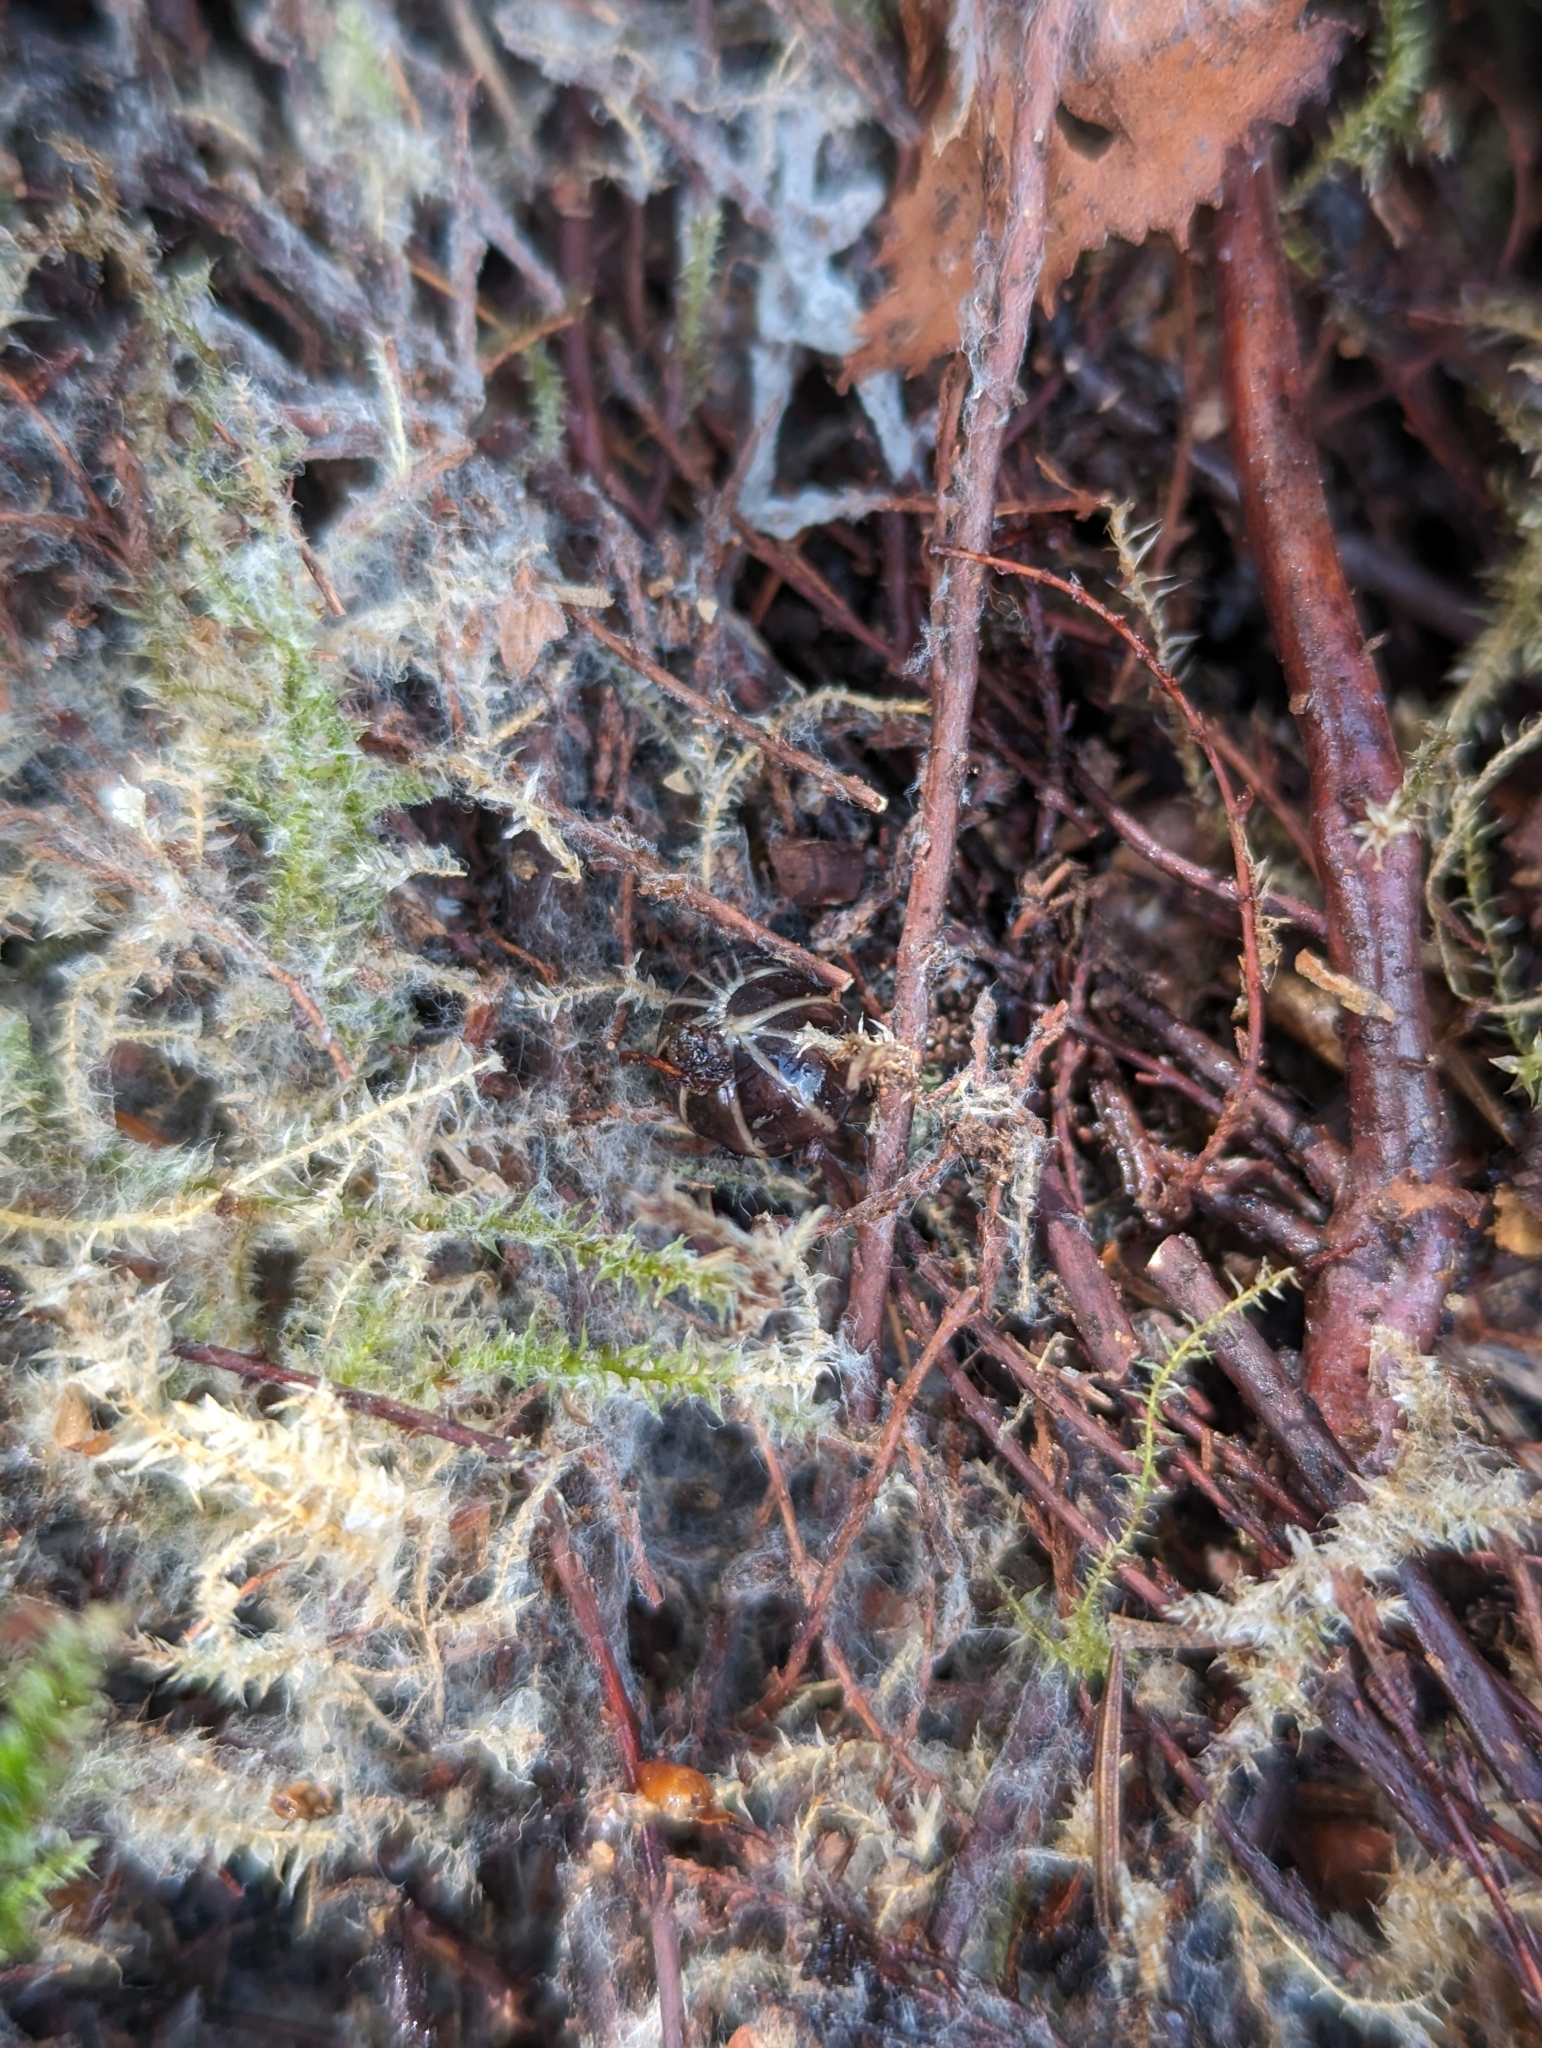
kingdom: Animalia
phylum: Arthropoda
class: Diplopoda
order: Glomerida
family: Glomeridae
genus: Glomeris
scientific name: Glomeris marginata
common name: Bordered pill millipede
